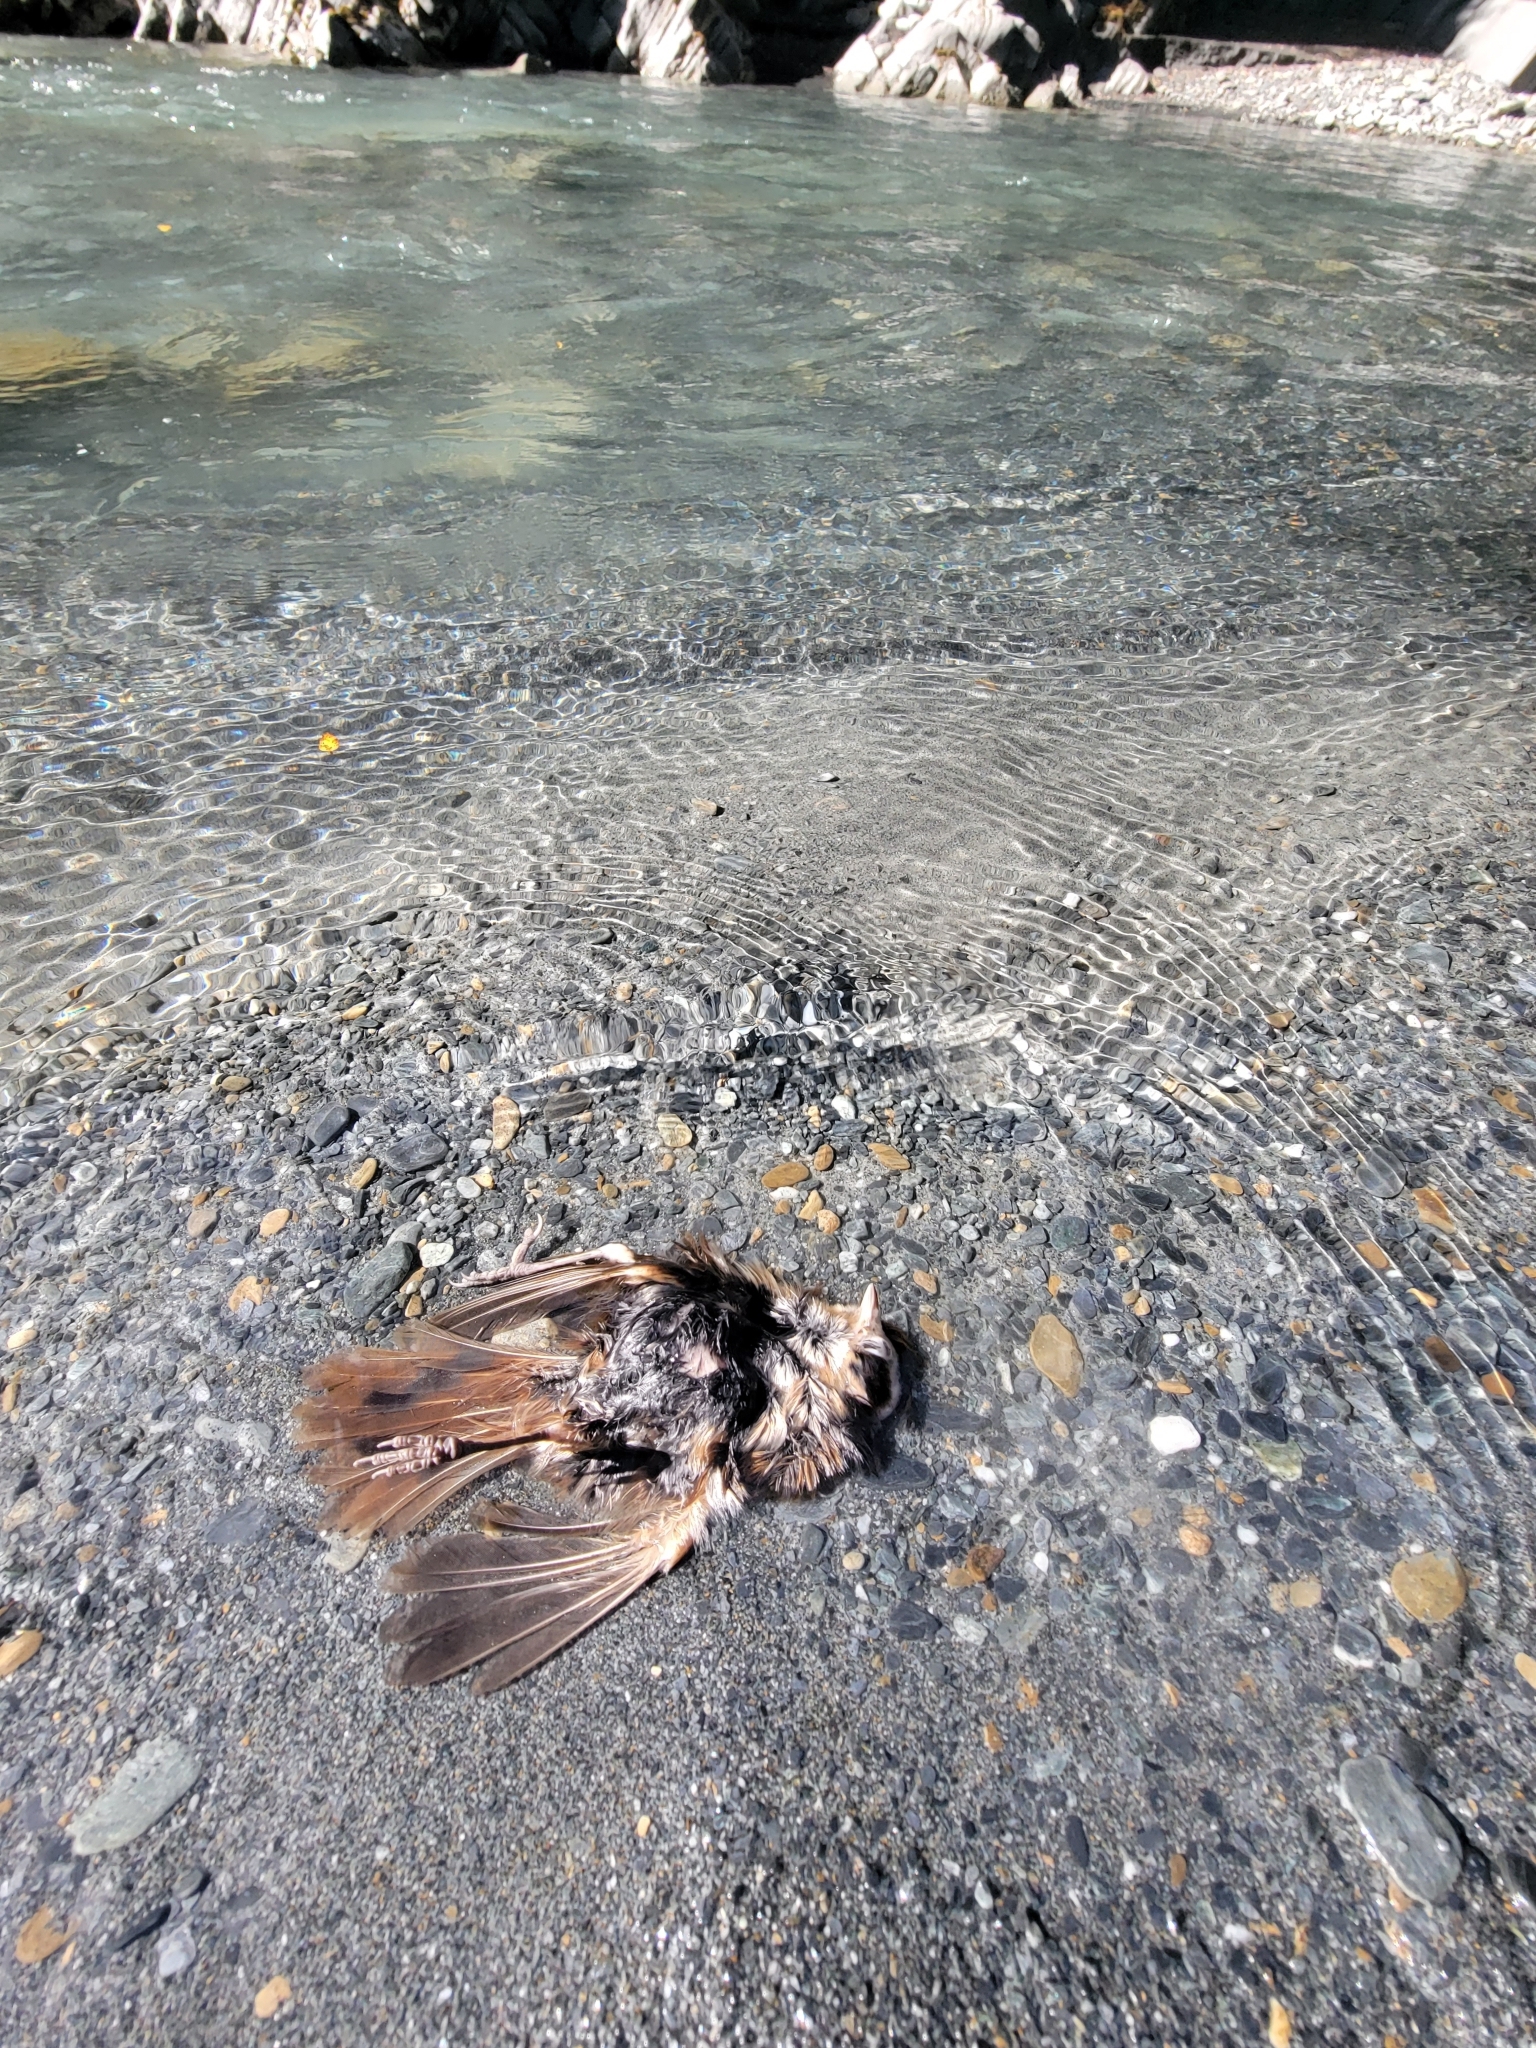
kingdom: Animalia
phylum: Chordata
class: Aves
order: Passeriformes
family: Turdidae
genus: Turdus
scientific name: Turdus philomelos
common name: Song thrush
